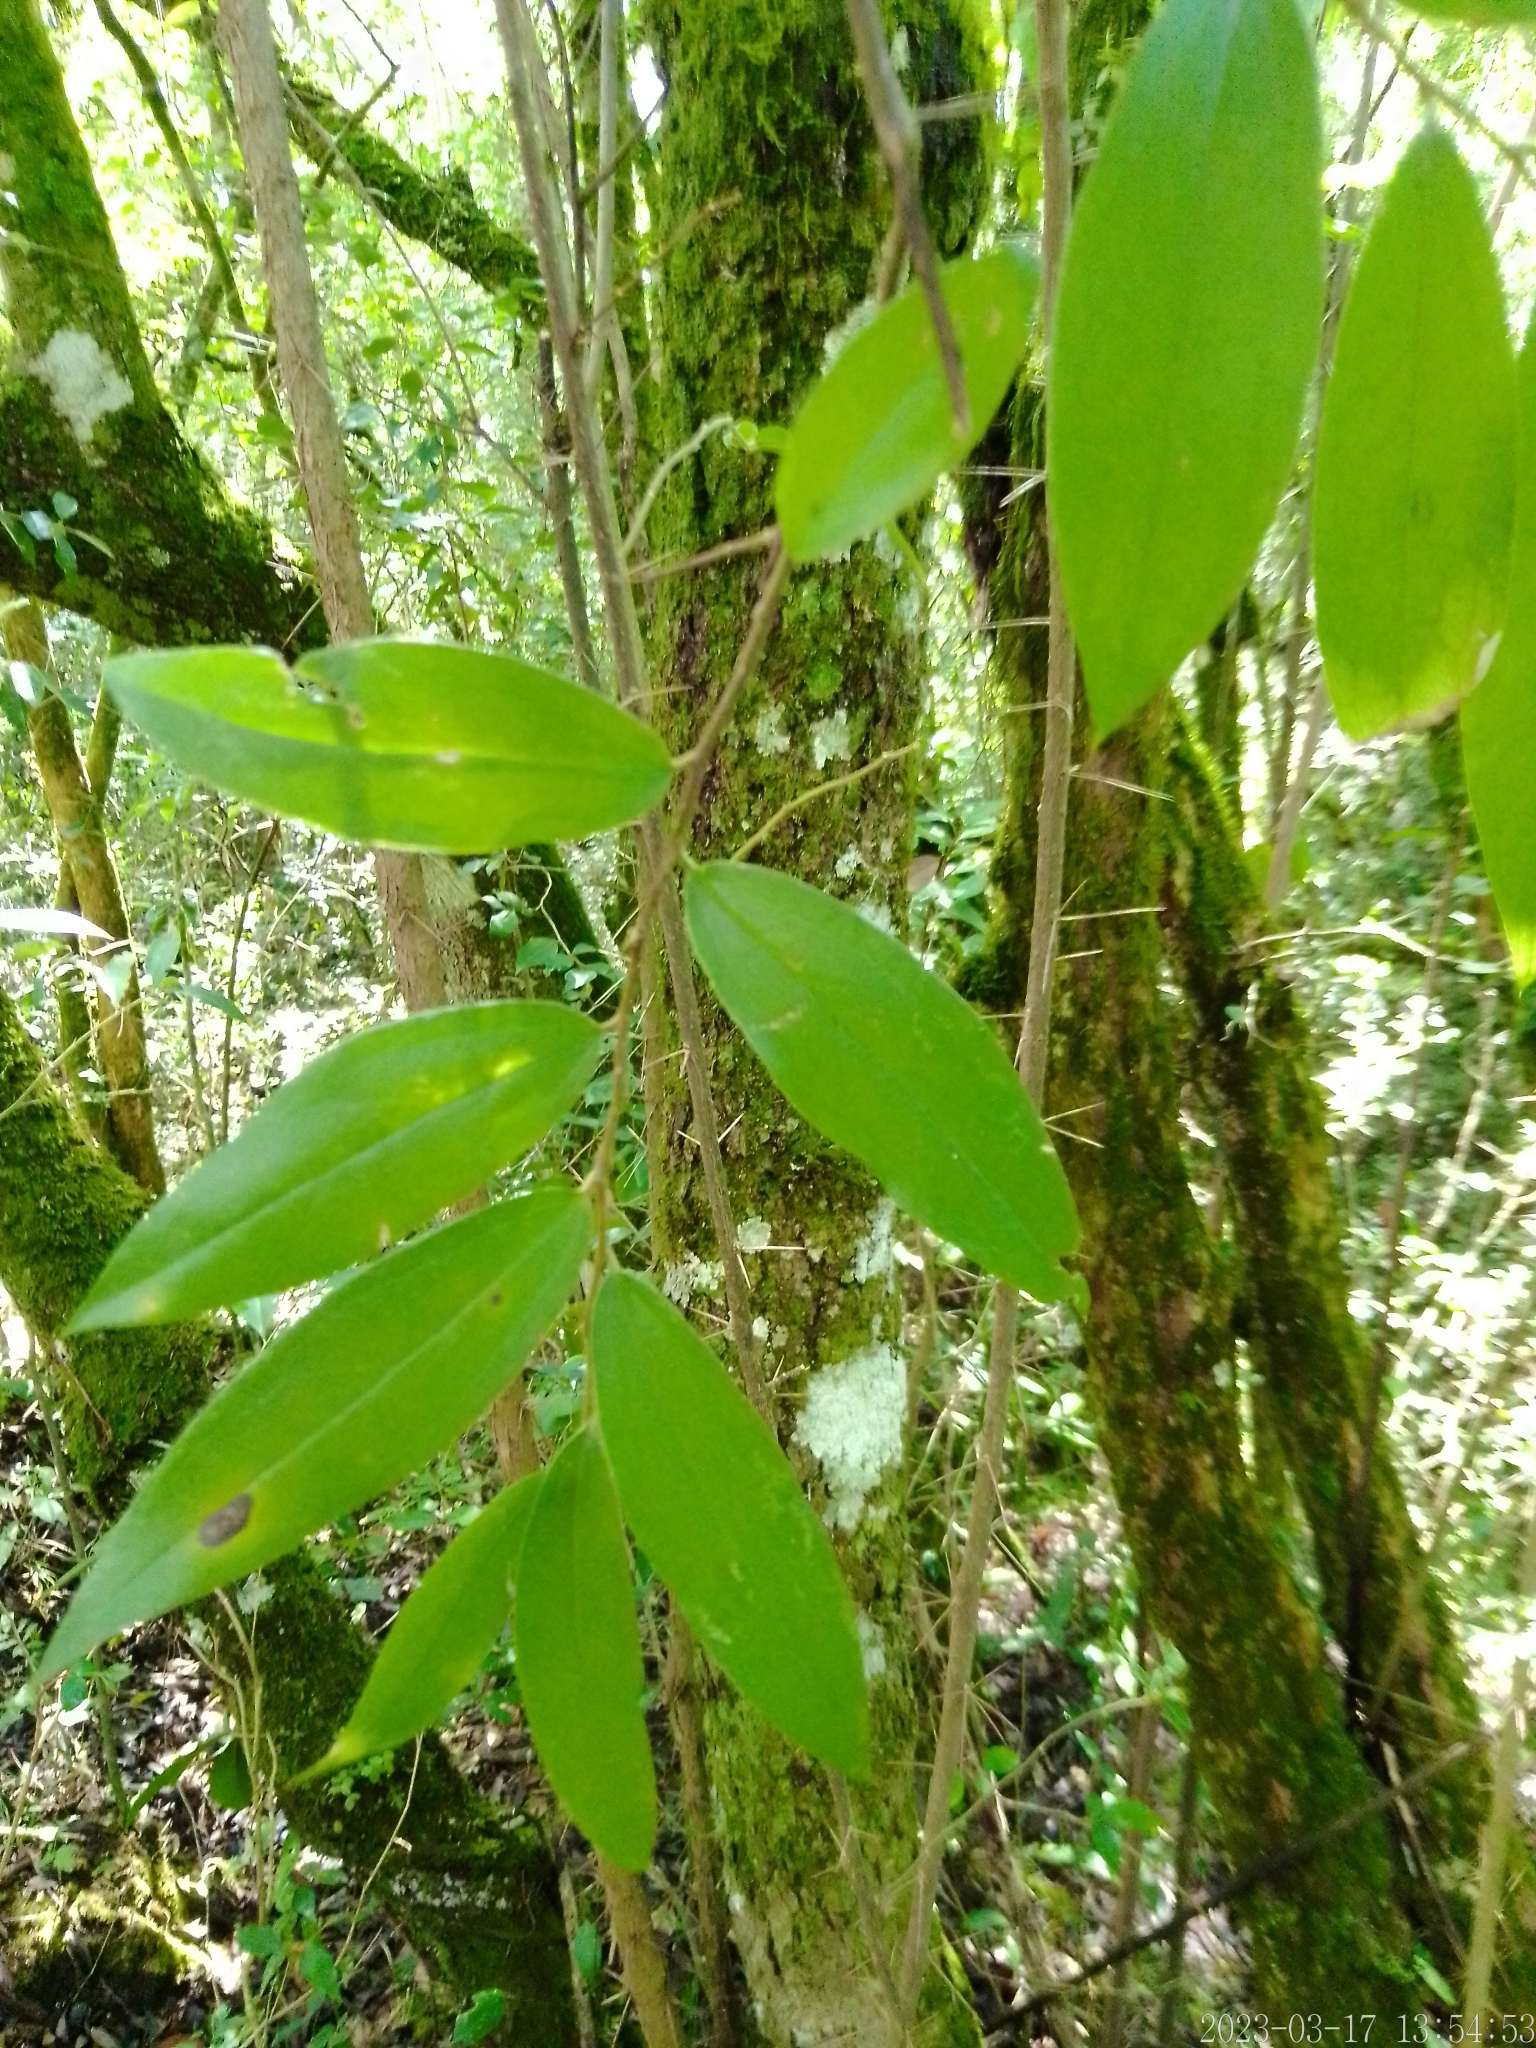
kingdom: Plantae
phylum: Tracheophyta
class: Magnoliopsida
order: Asterales
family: Asteraceae
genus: Dasyphyllum
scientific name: Dasyphyllum spinescens
